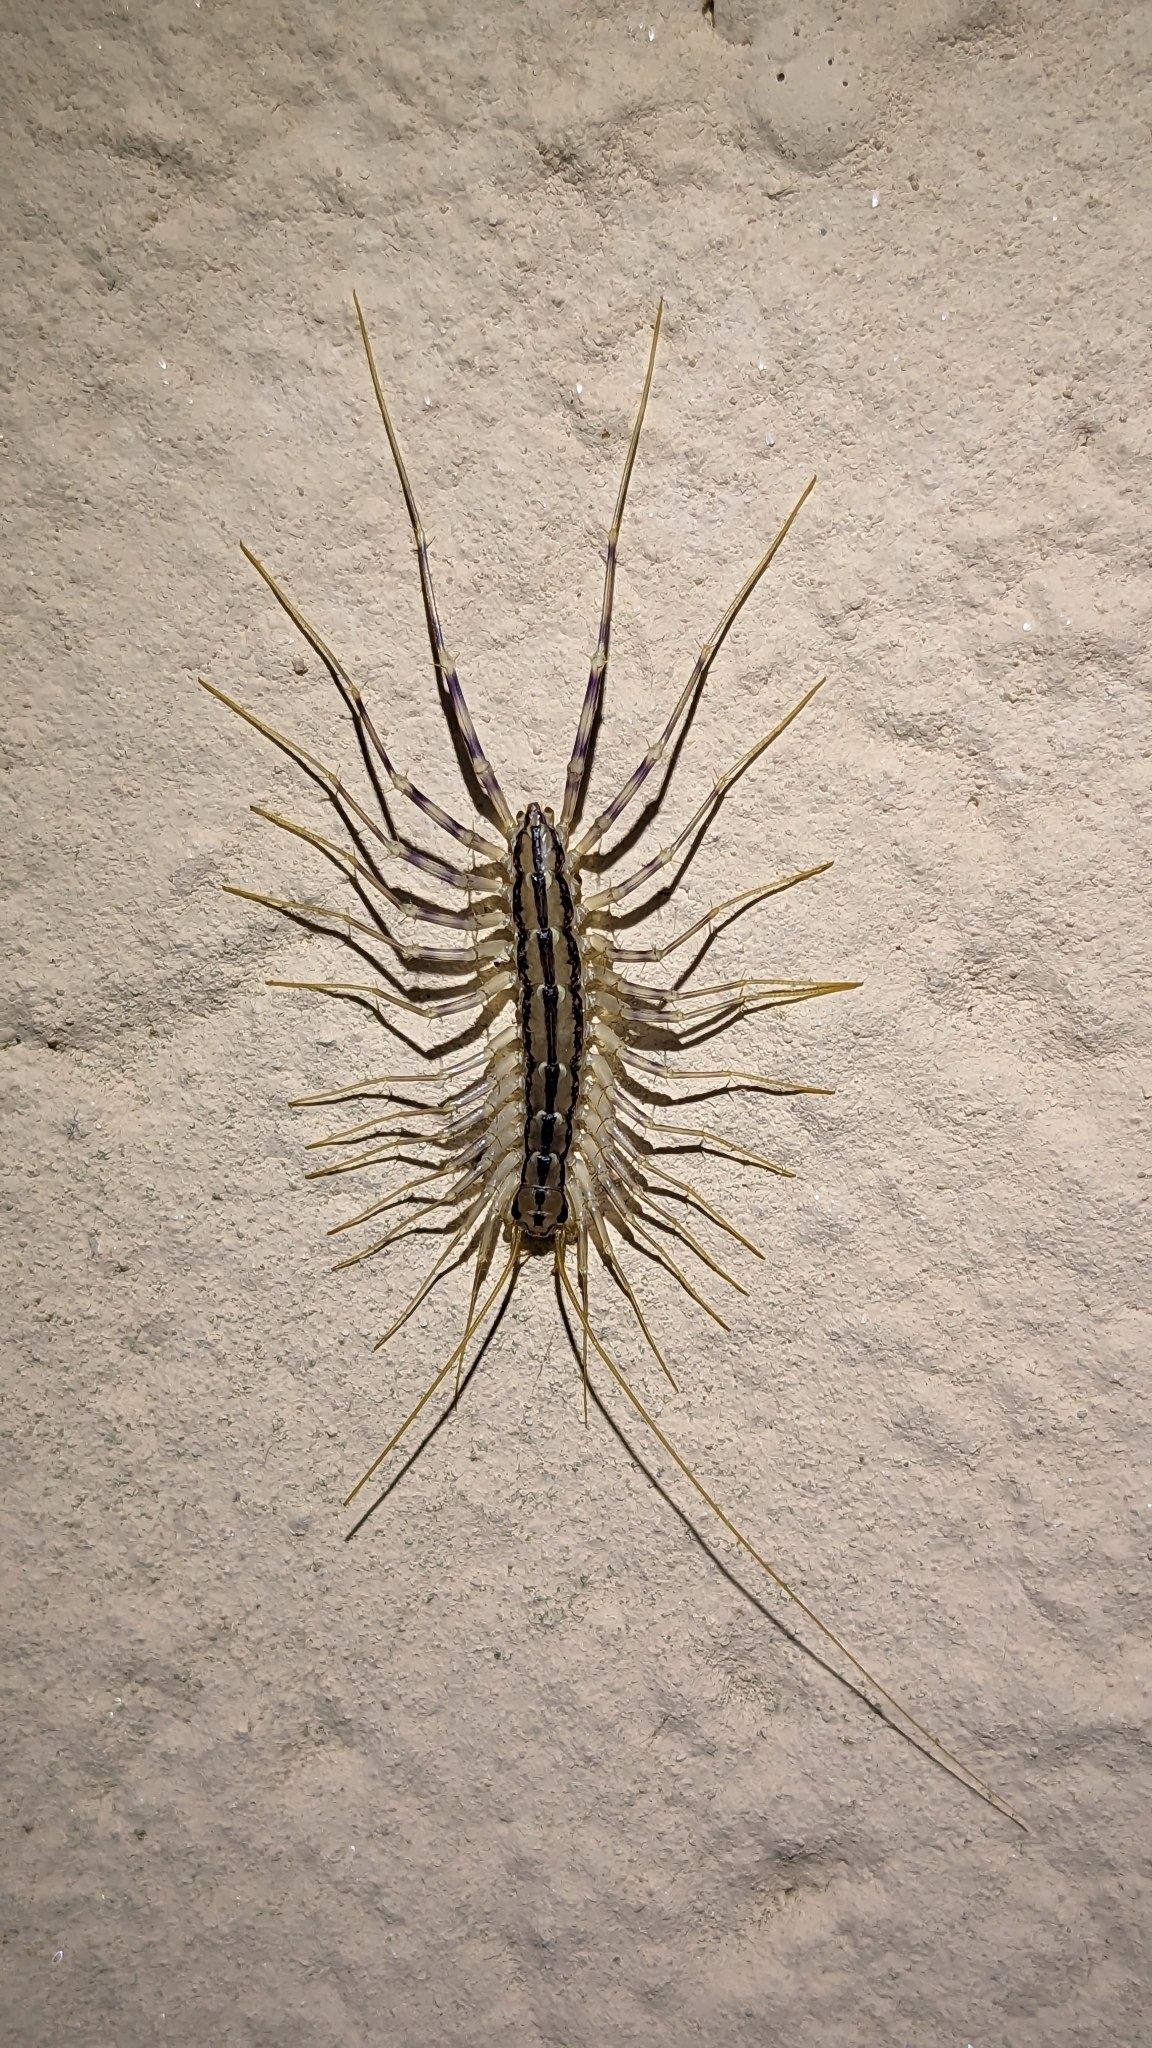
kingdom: Animalia
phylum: Arthropoda
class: Chilopoda
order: Scutigeromorpha
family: Scutigeridae
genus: Scutigera
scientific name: Scutigera coleoptrata
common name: House centipede
